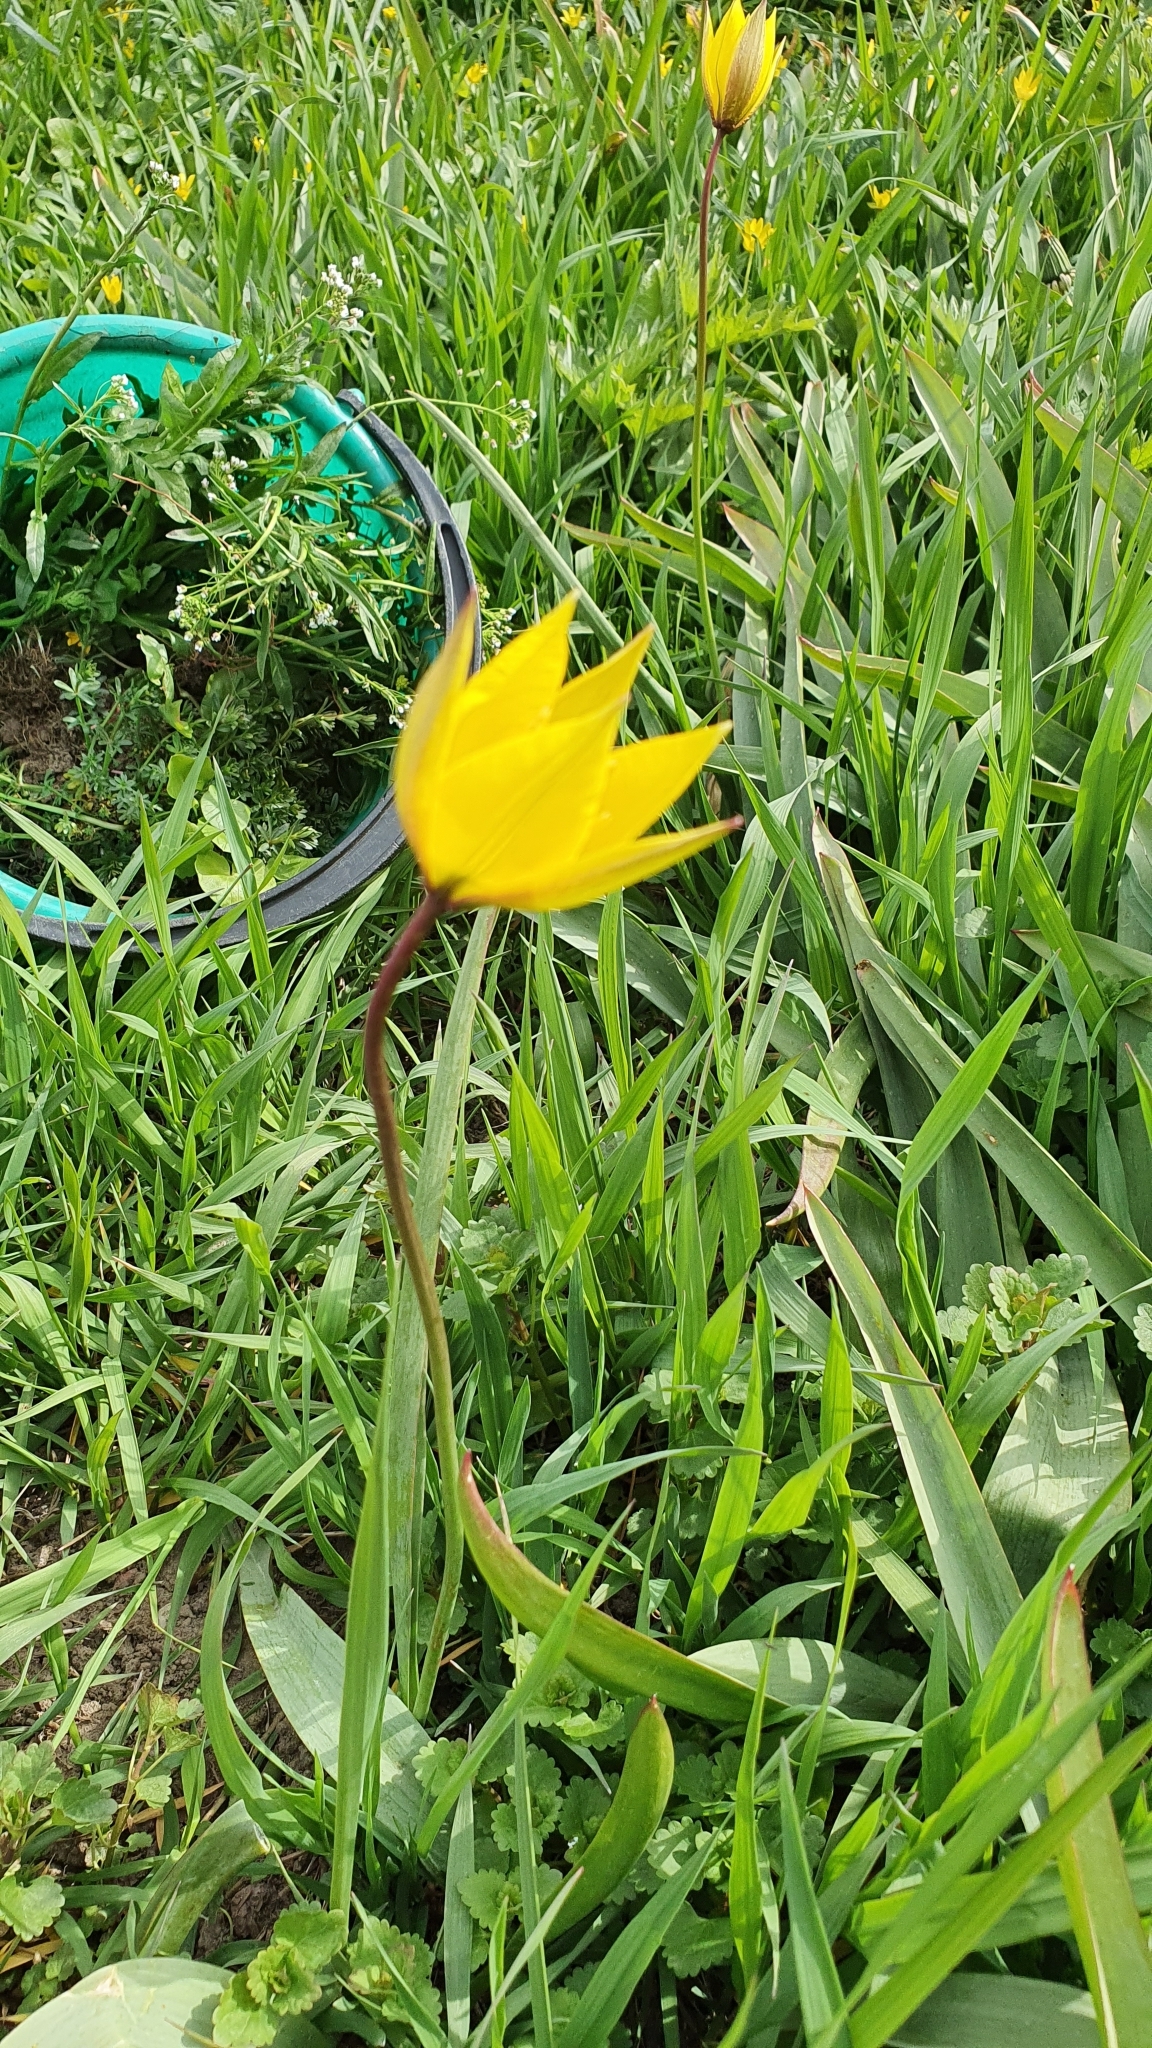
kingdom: Plantae
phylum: Tracheophyta
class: Liliopsida
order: Liliales
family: Liliaceae
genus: Tulipa
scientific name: Tulipa sylvestris
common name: Wild tulip
